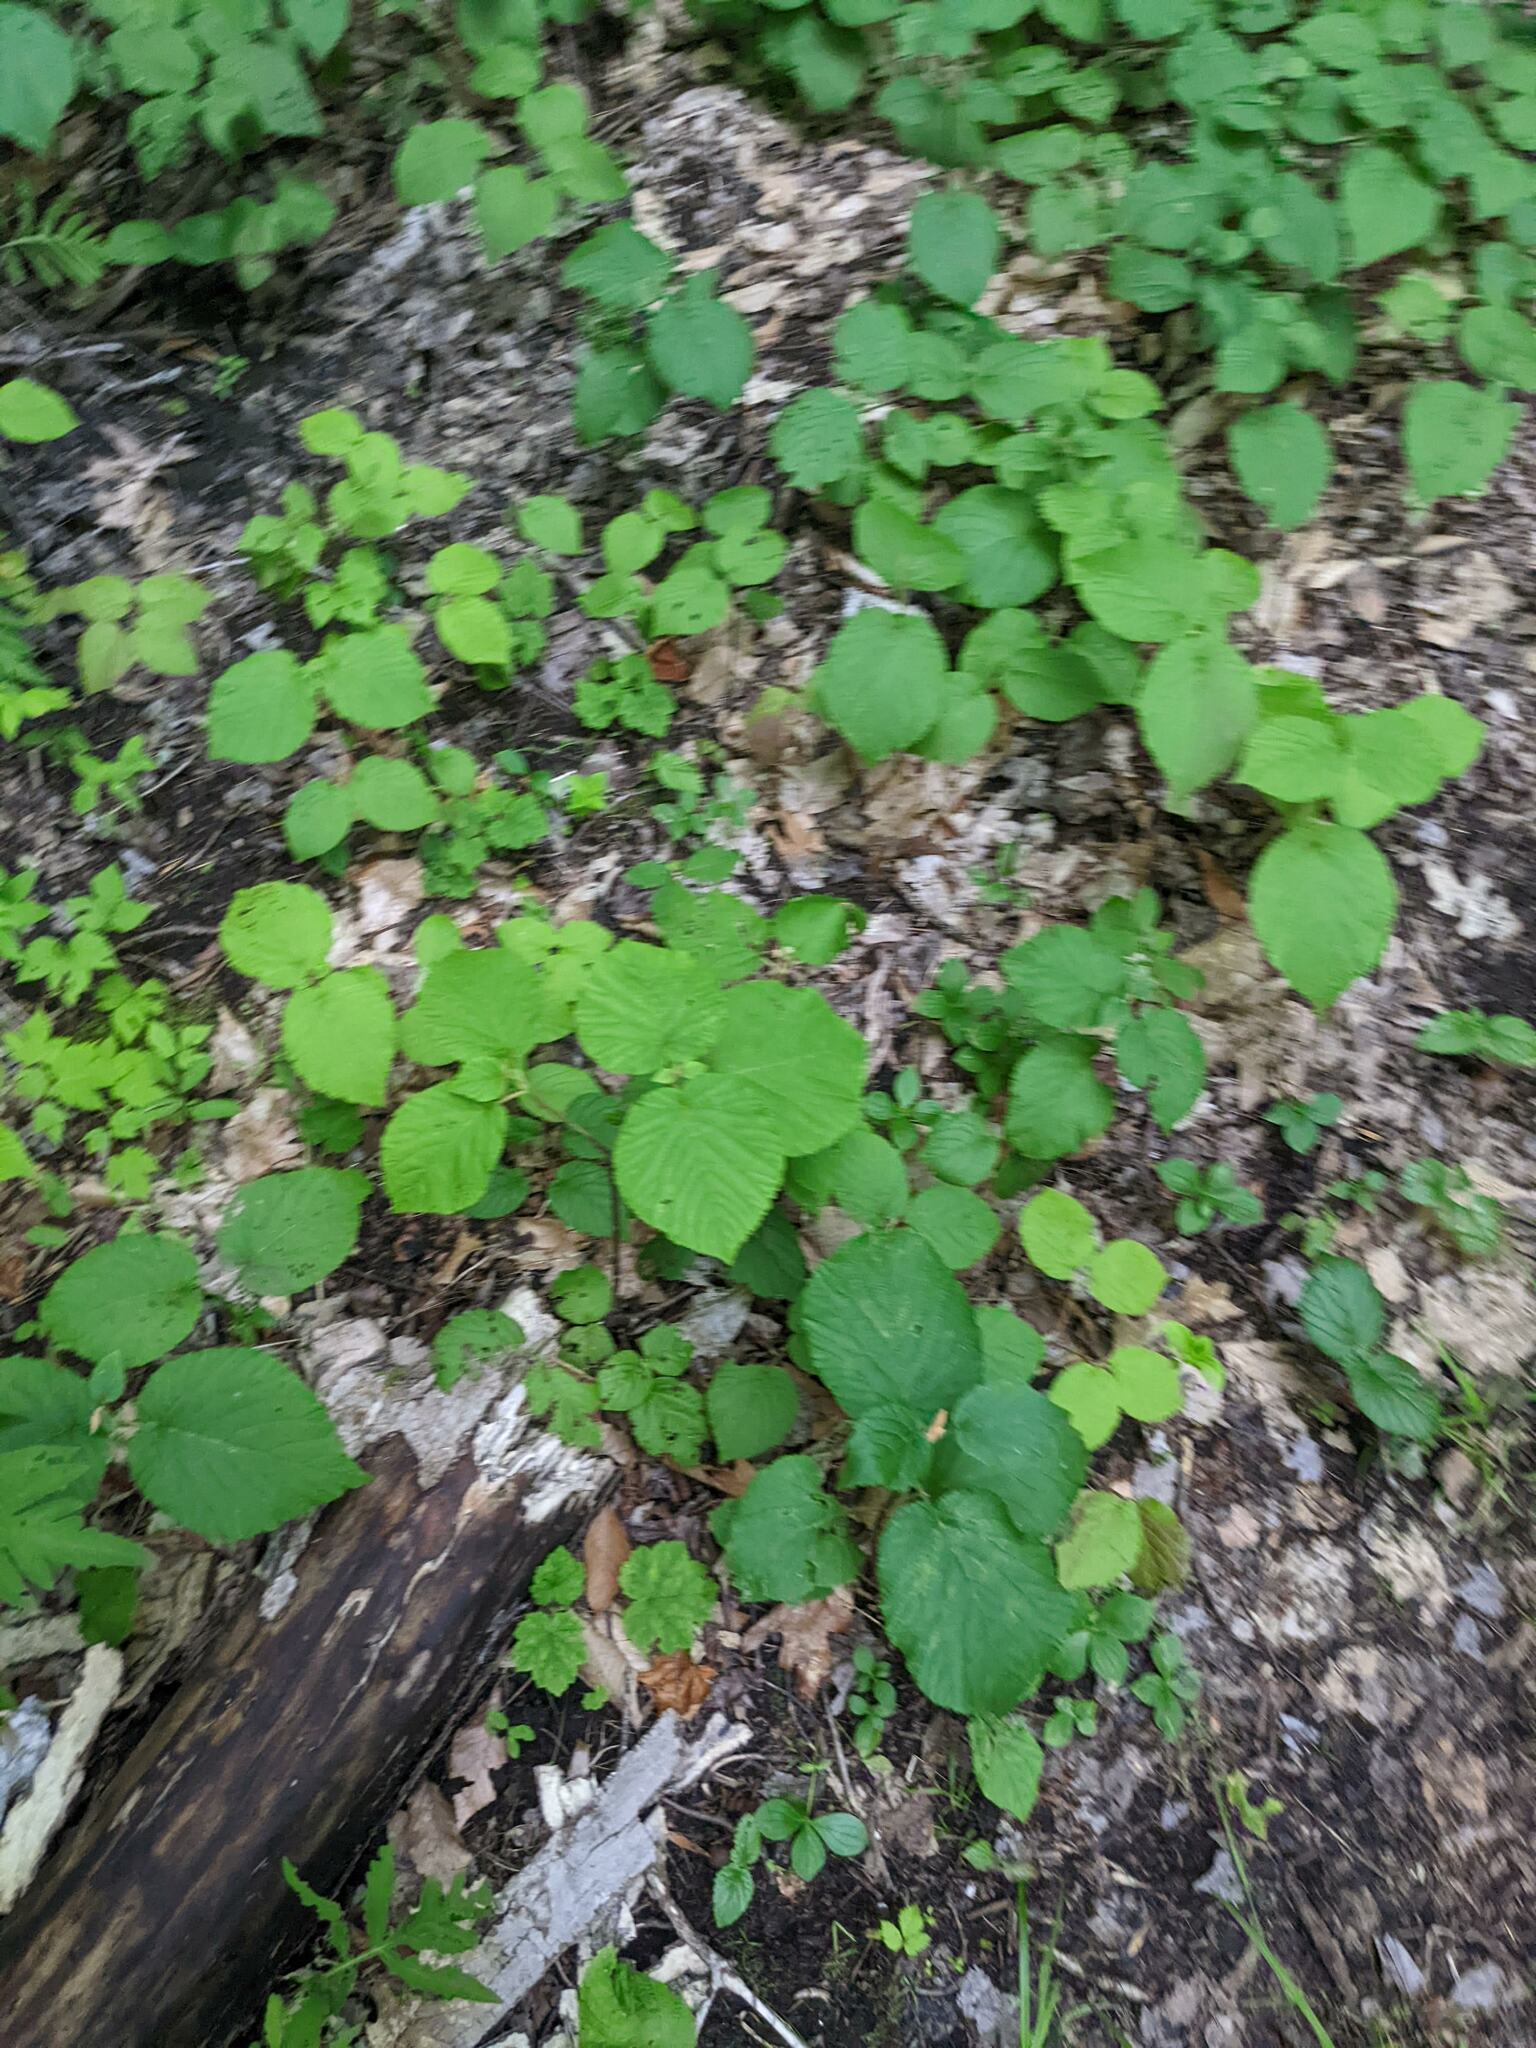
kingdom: Plantae
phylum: Tracheophyta
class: Magnoliopsida
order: Dipsacales
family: Viburnaceae
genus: Viburnum
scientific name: Viburnum lantanoides
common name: Hobblebush
